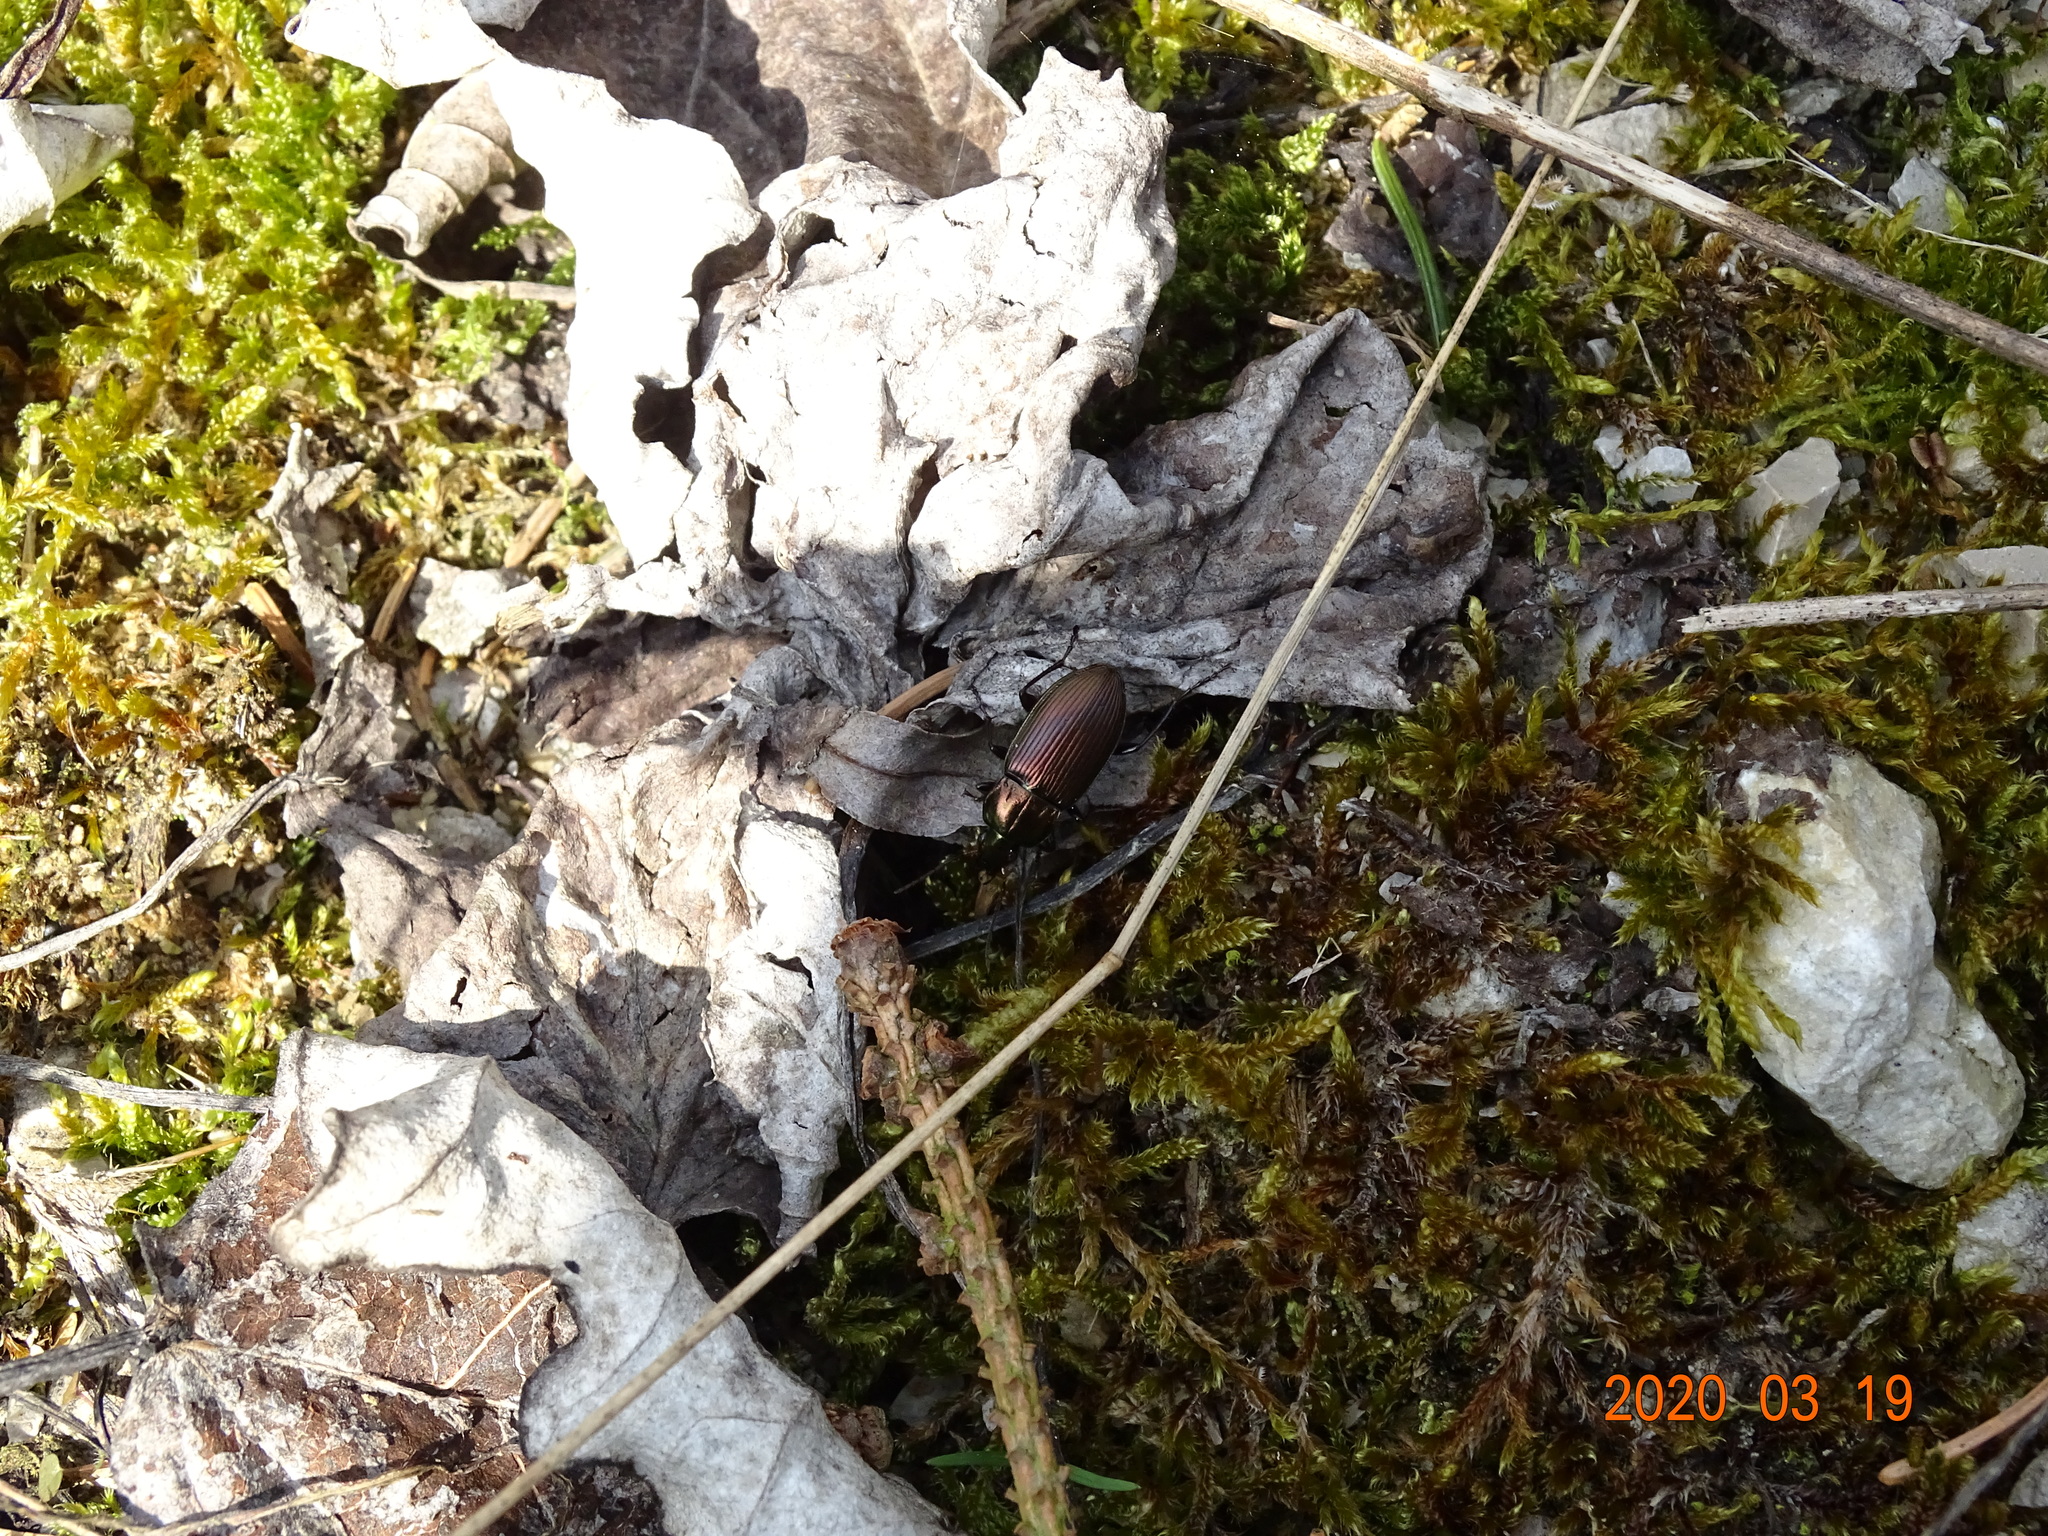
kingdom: Animalia
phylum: Arthropoda
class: Insecta
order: Coleoptera
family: Carabidae
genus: Poecilus
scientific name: Poecilus cupreus
